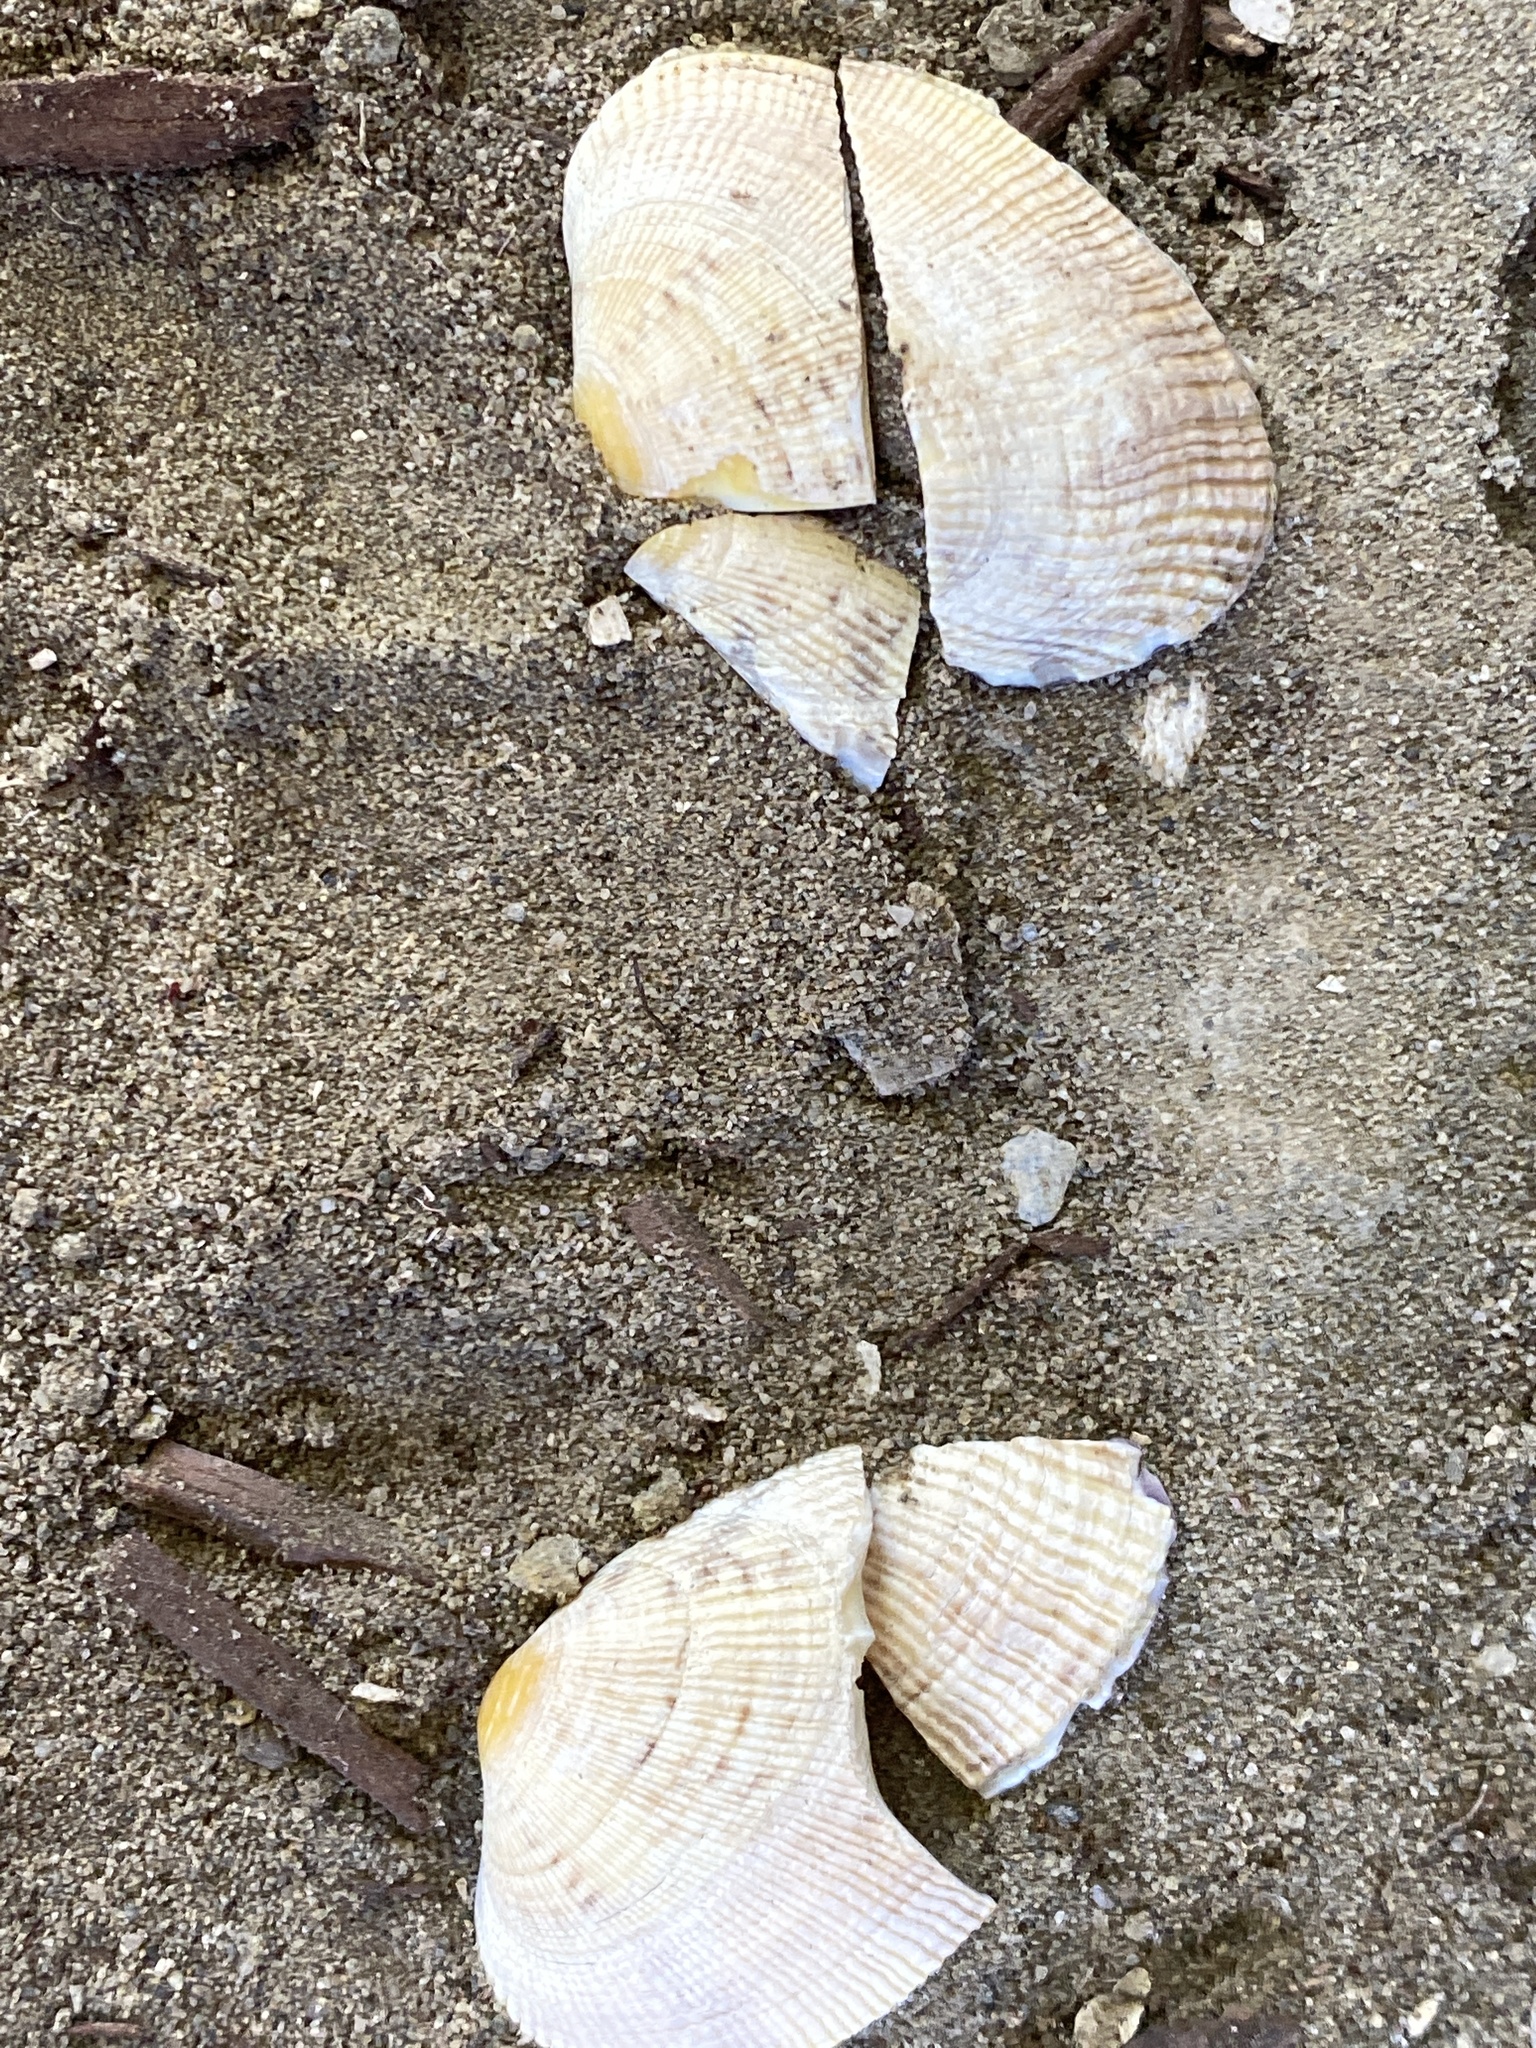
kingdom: Animalia
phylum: Mollusca
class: Bivalvia
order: Venerida
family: Veneridae
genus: Ruditapes
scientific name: Ruditapes philippinarum
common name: Manila clam
